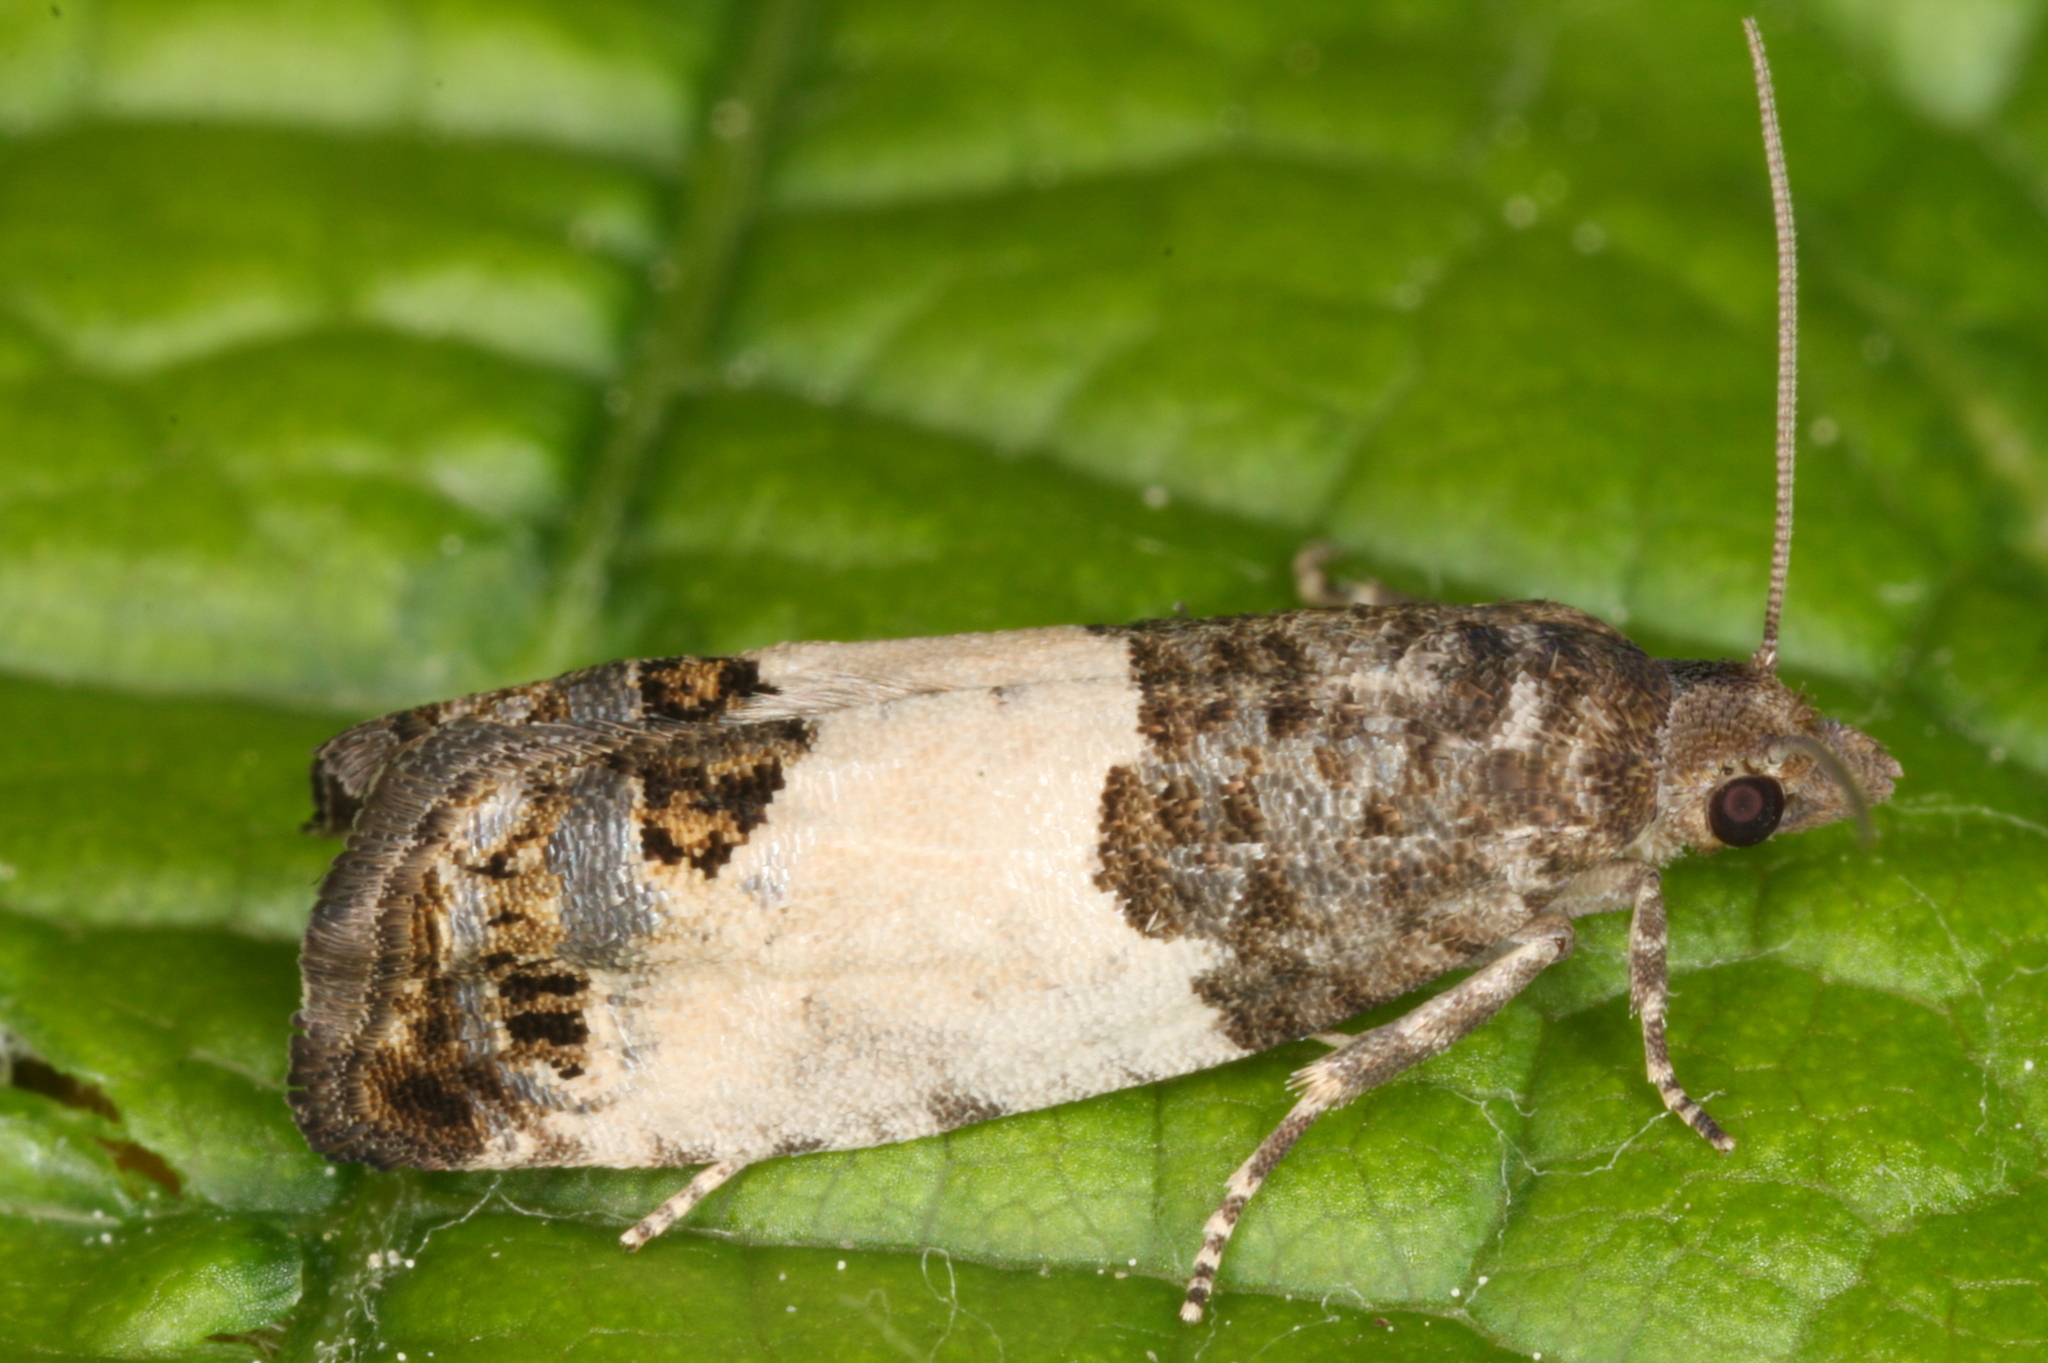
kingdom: Animalia
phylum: Arthropoda
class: Insecta
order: Lepidoptera
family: Tortricidae
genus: Spilonota
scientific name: Spilonota ocellana
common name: Bud moth
